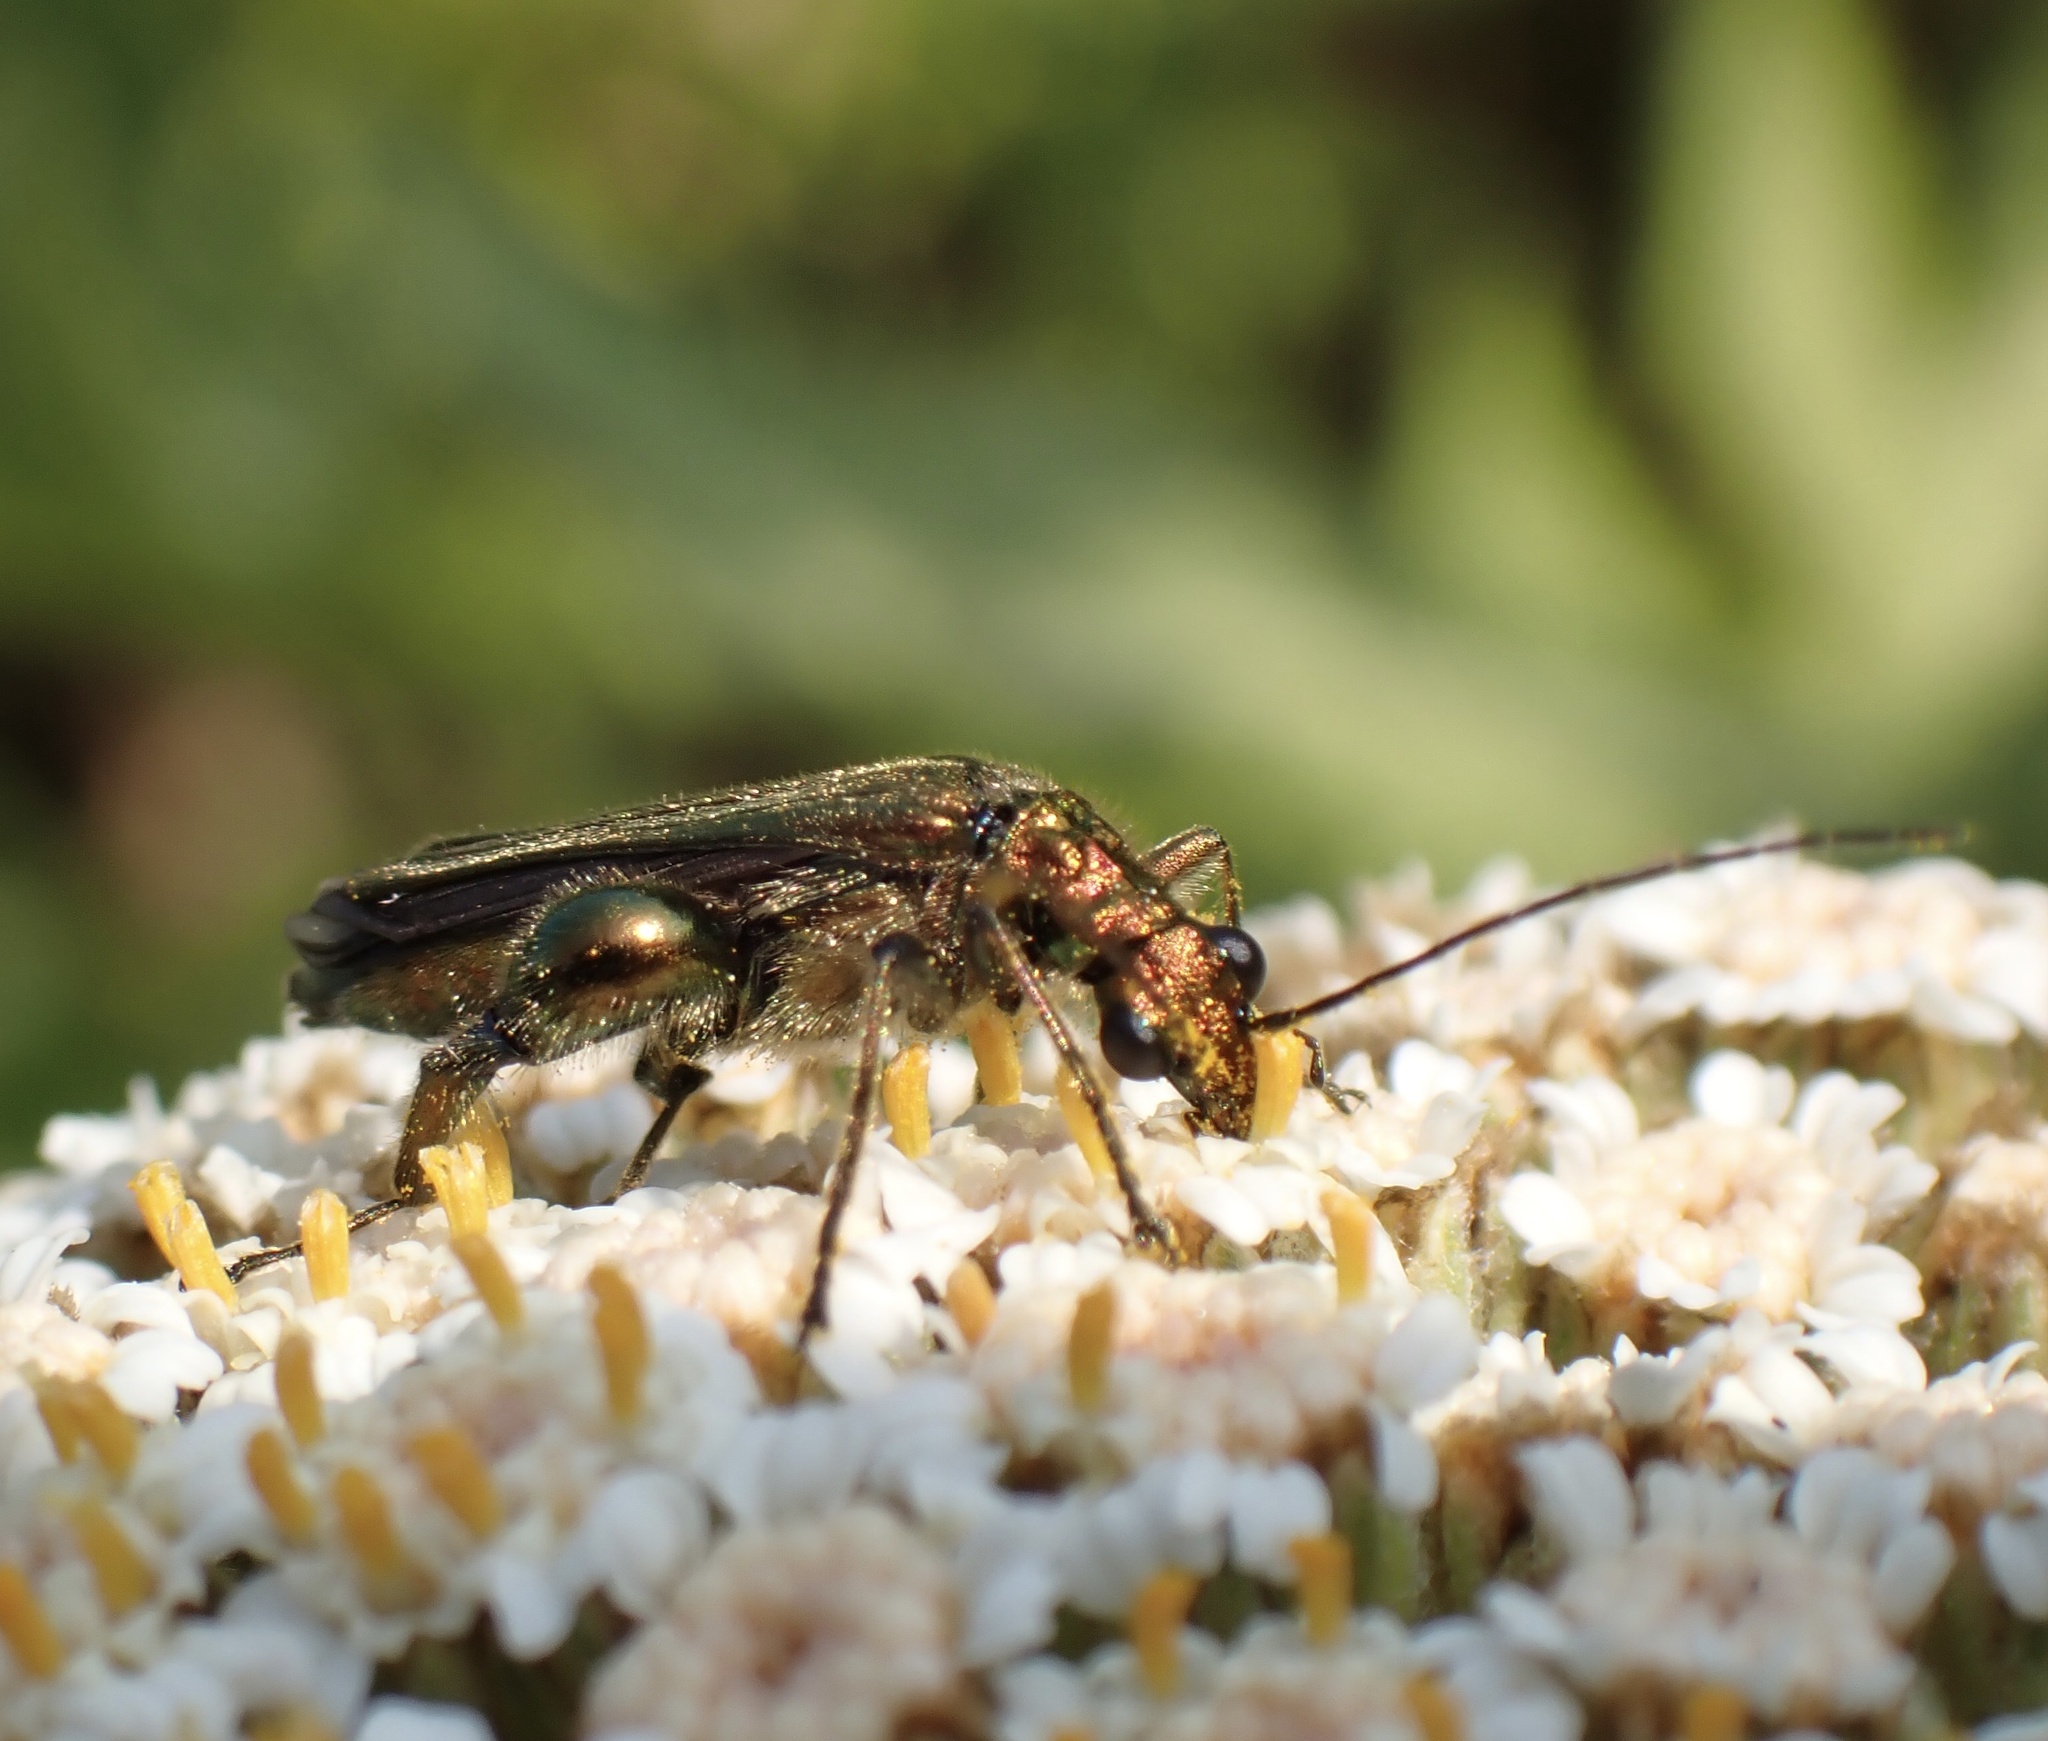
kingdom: Animalia
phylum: Arthropoda
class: Insecta
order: Coleoptera
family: Oedemeridae
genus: Oedemera
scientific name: Oedemera nobilis
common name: Swollen-thighed beetle
